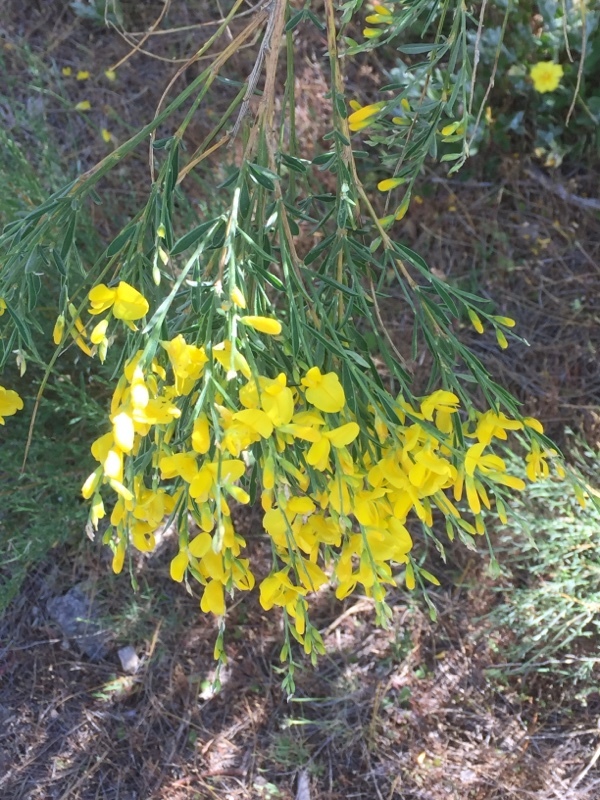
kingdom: Plantae
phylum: Tracheophyta
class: Magnoliopsida
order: Fabales
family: Fabaceae
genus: Genista
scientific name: Genista florida
